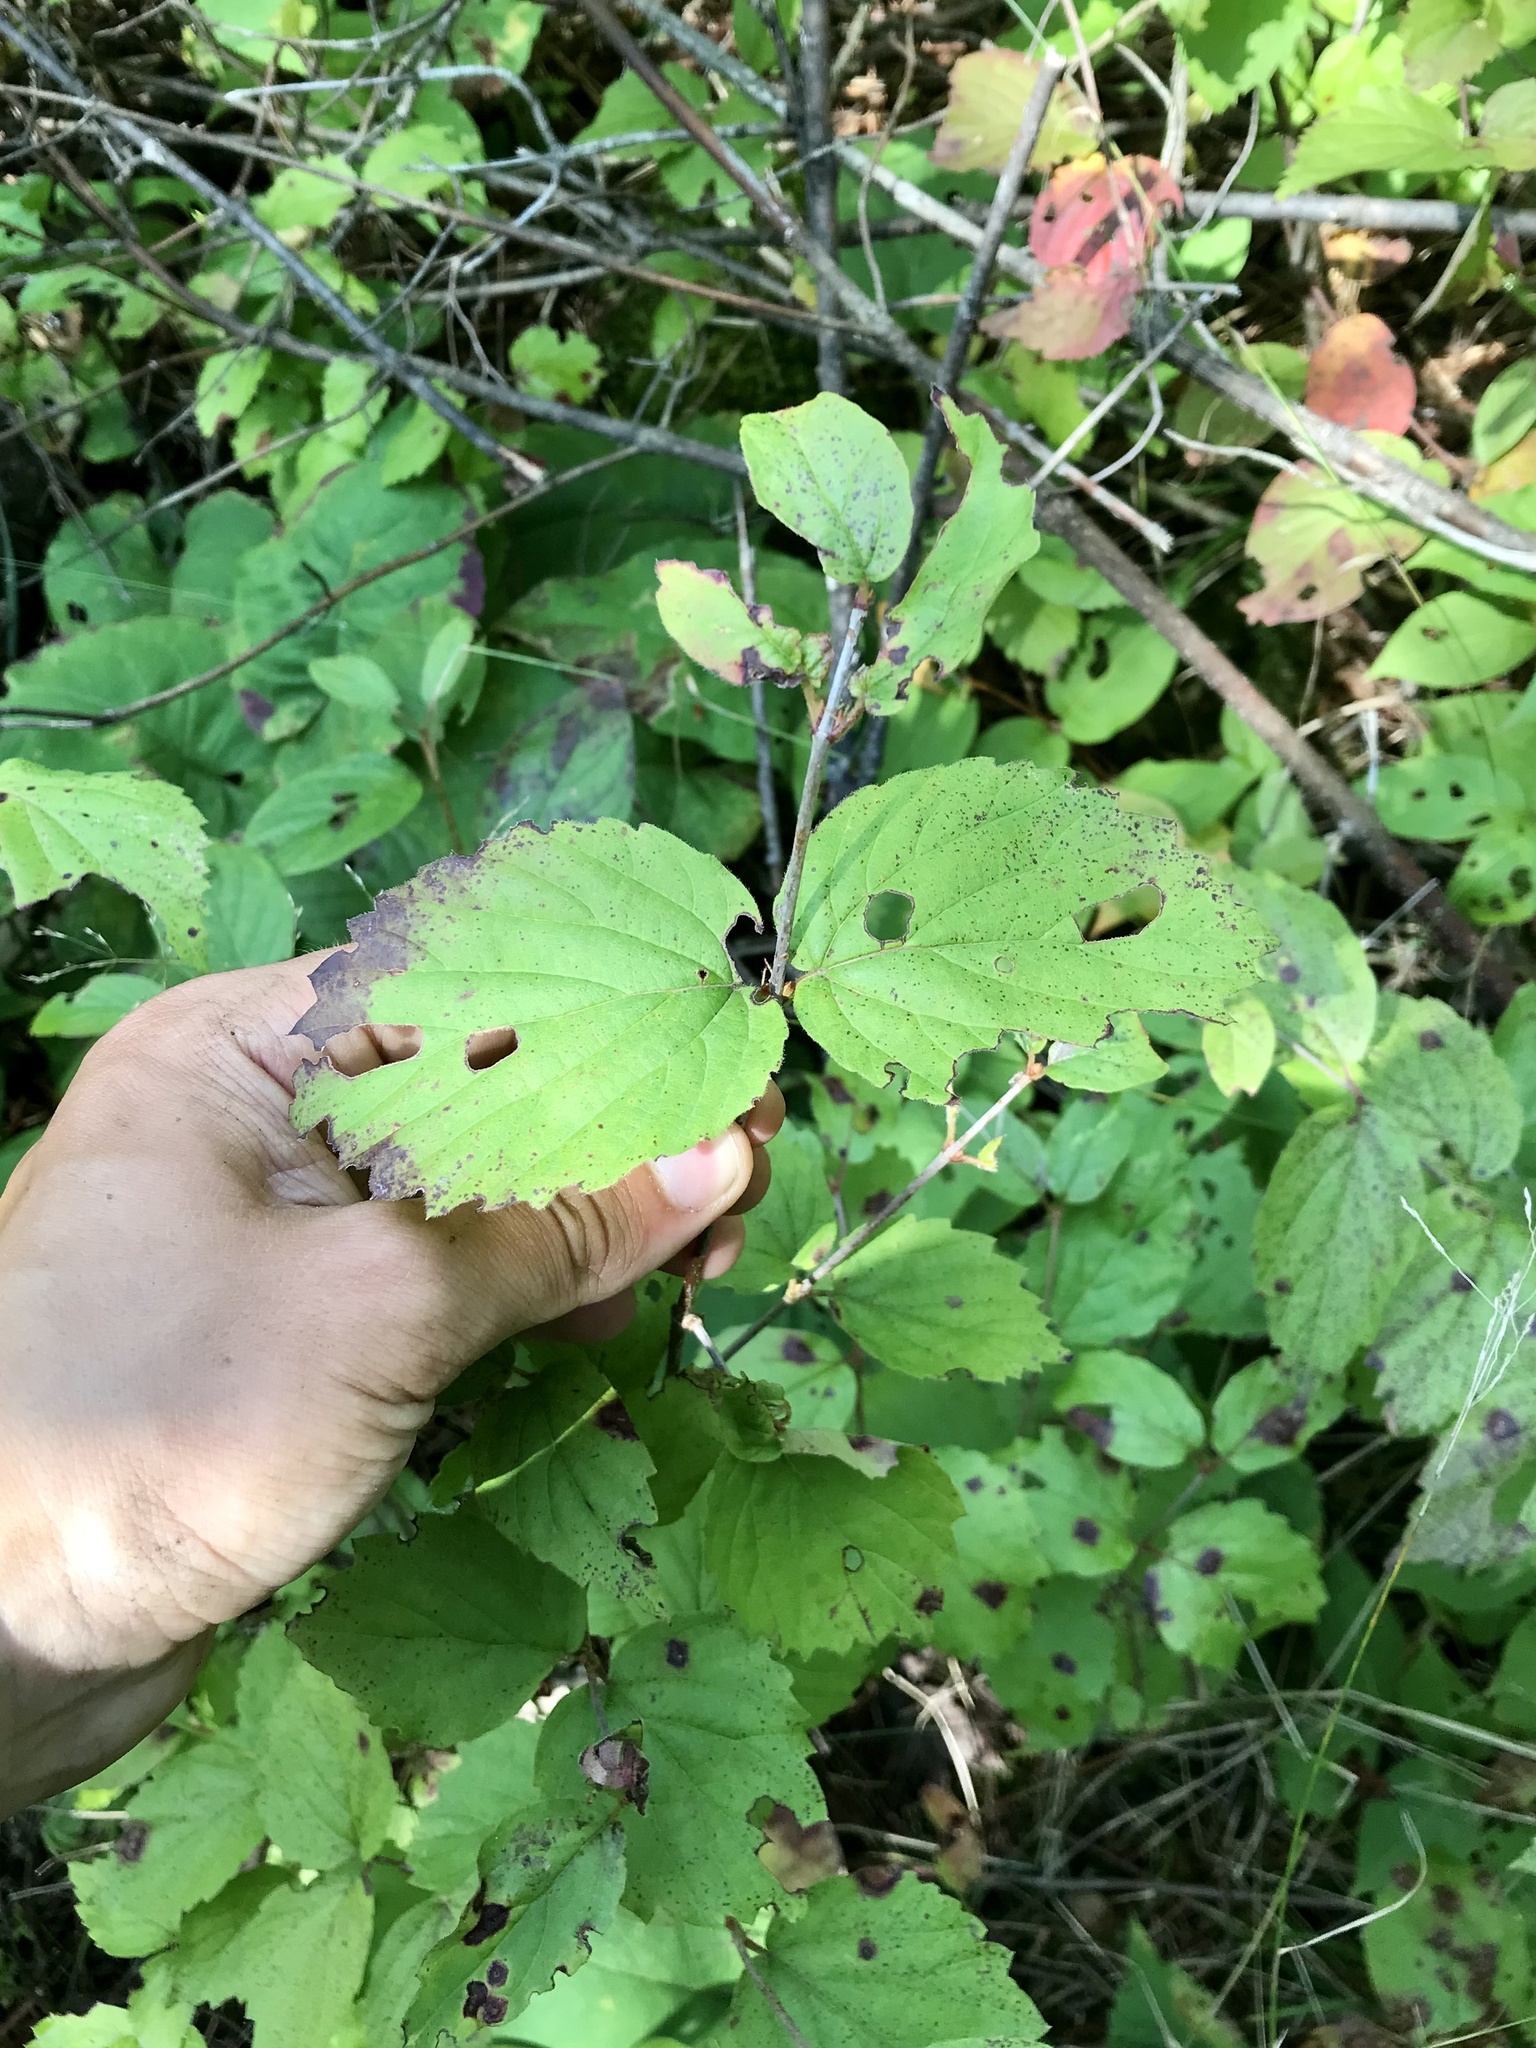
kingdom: Plantae
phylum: Tracheophyta
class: Magnoliopsida
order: Dipsacales
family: Viburnaceae
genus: Viburnum
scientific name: Viburnum rafinesqueanum
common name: Downy arrow-wood
